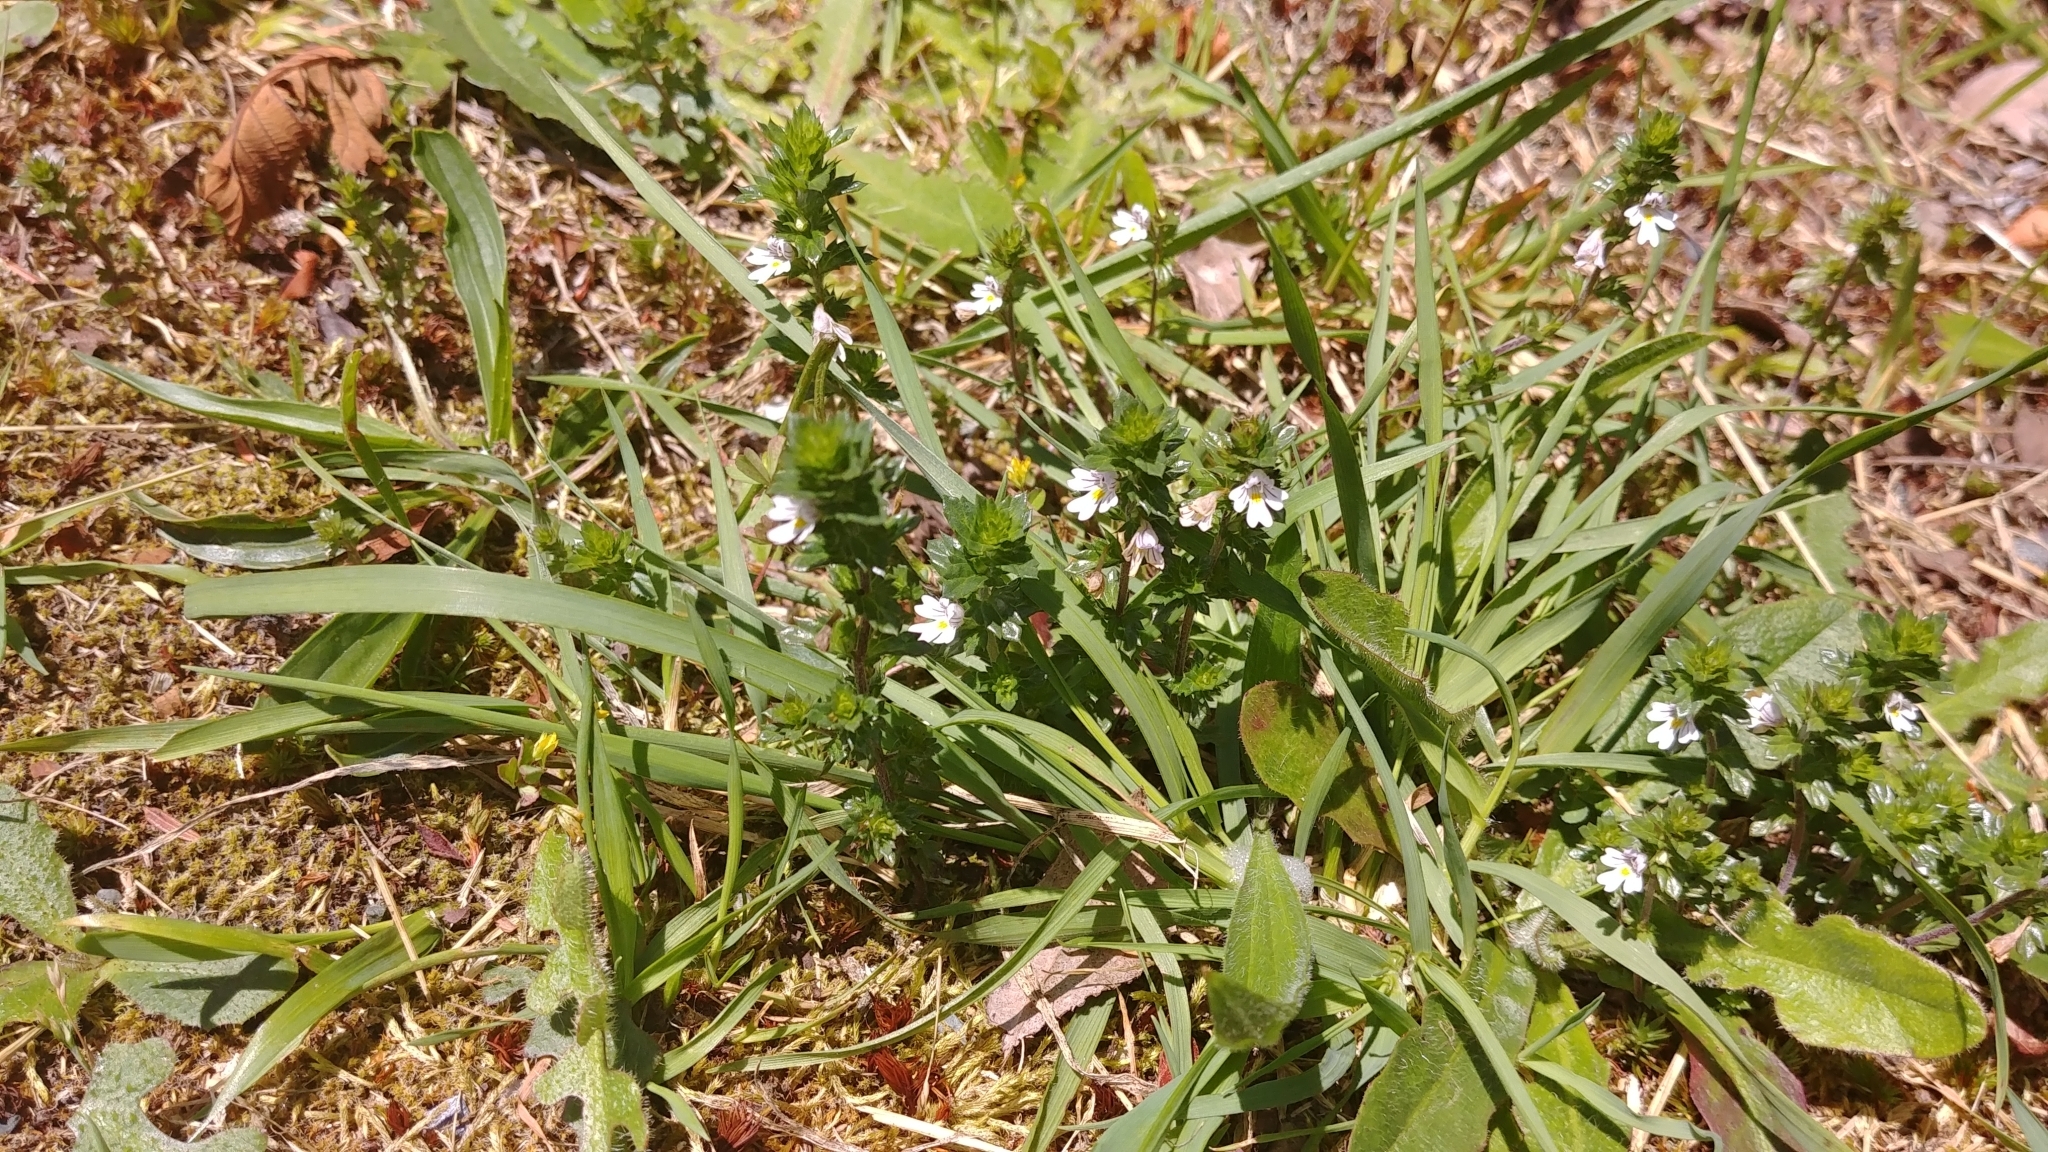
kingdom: Plantae
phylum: Tracheophyta
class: Magnoliopsida
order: Lamiales
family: Orobanchaceae
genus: Euphrasia
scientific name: Euphrasia nemorosa
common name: Common eyebright
